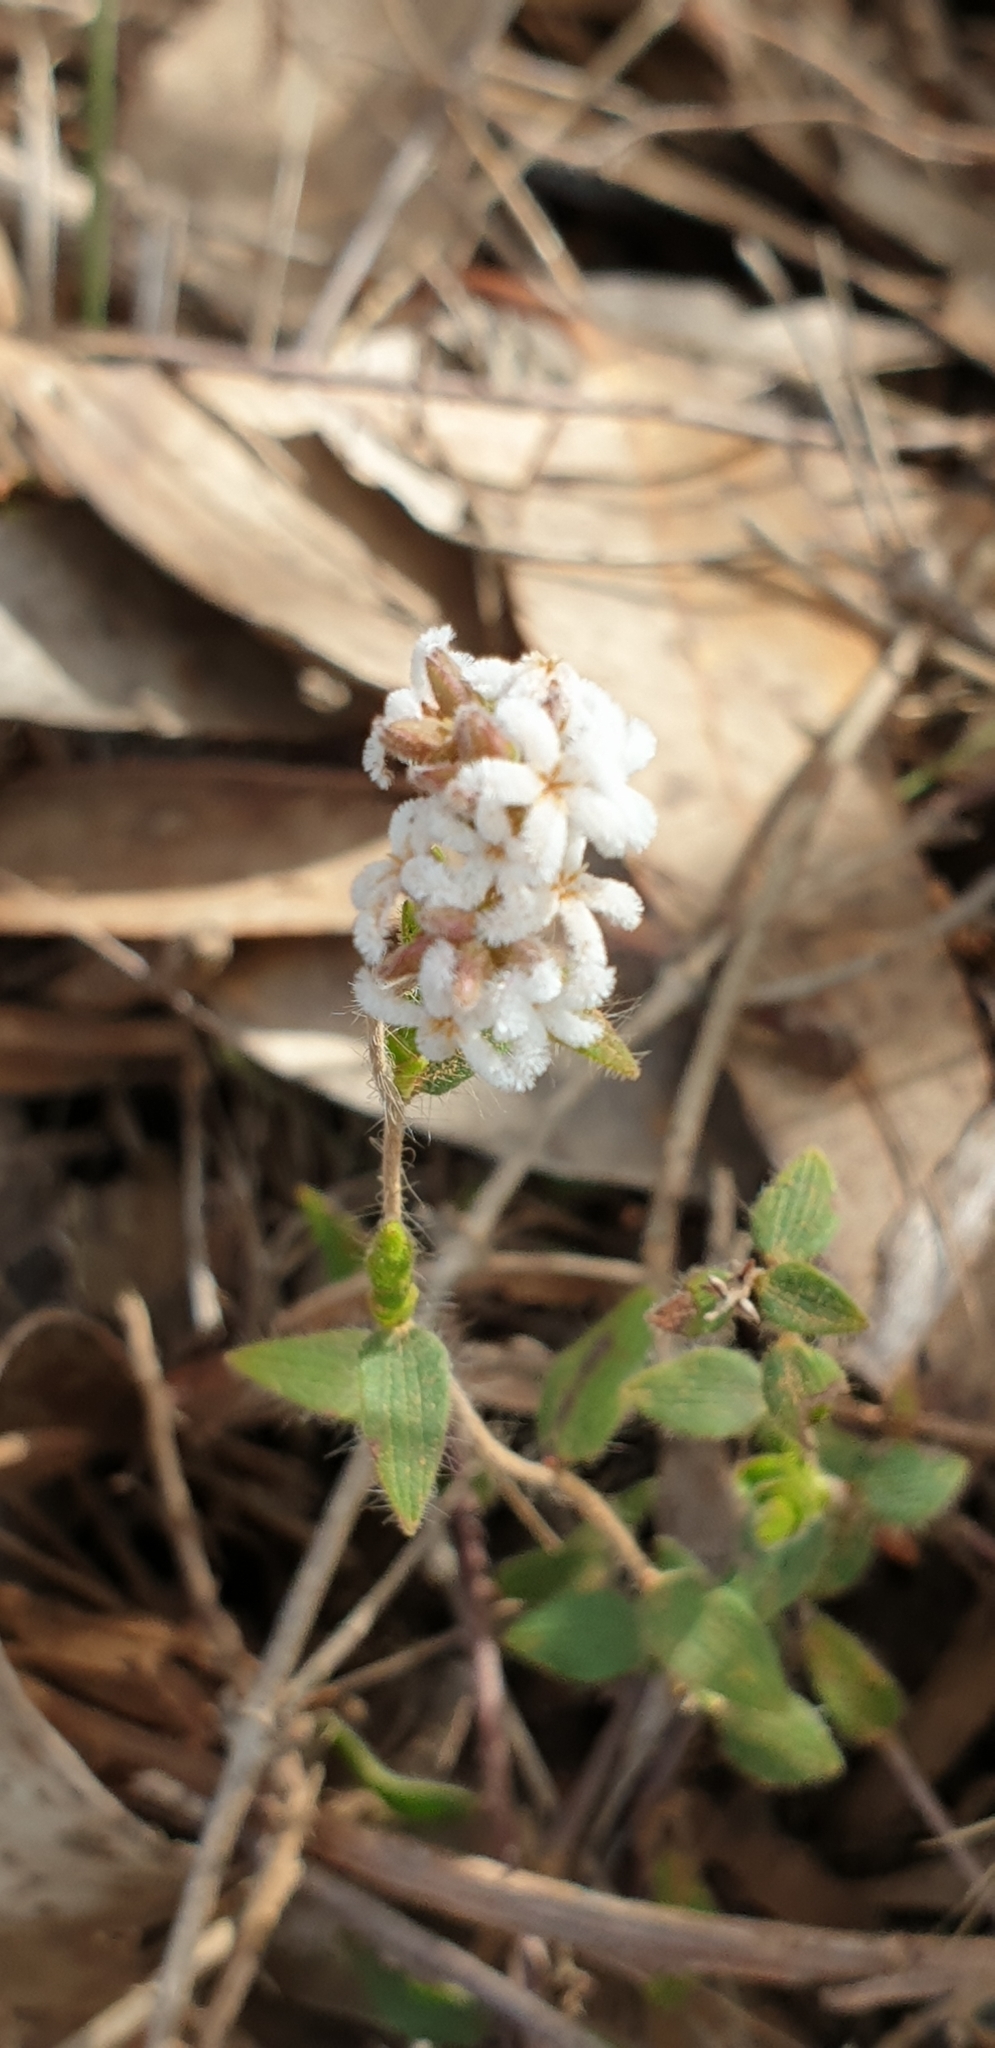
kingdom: Plantae
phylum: Tracheophyta
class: Magnoliopsida
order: Ericales
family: Ericaceae
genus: Leucopogon
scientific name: Leucopogon concurvus
